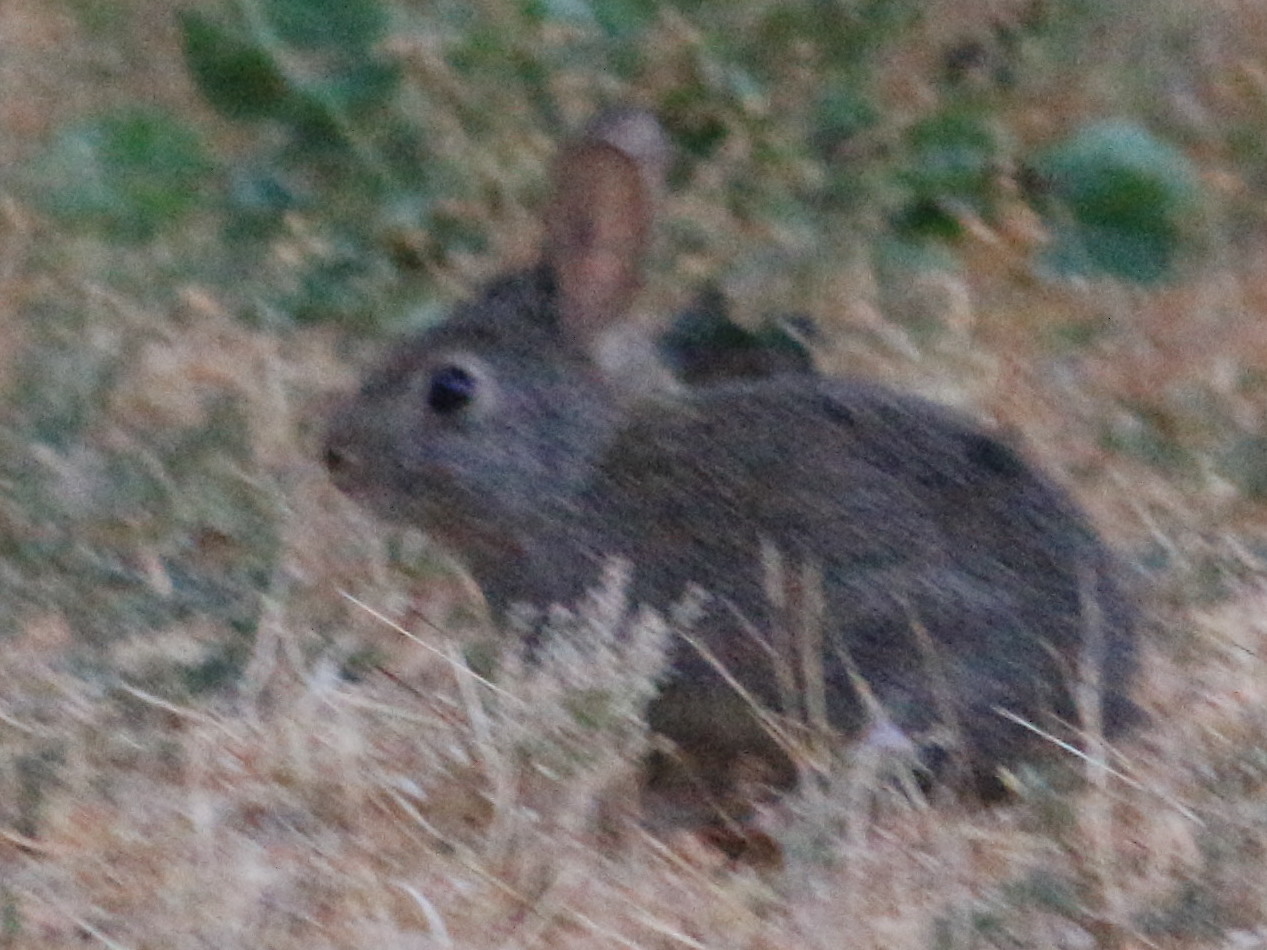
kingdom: Animalia
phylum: Chordata
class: Mammalia
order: Lagomorpha
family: Leporidae
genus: Sylvilagus
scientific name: Sylvilagus bachmani
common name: Brush rabbit
